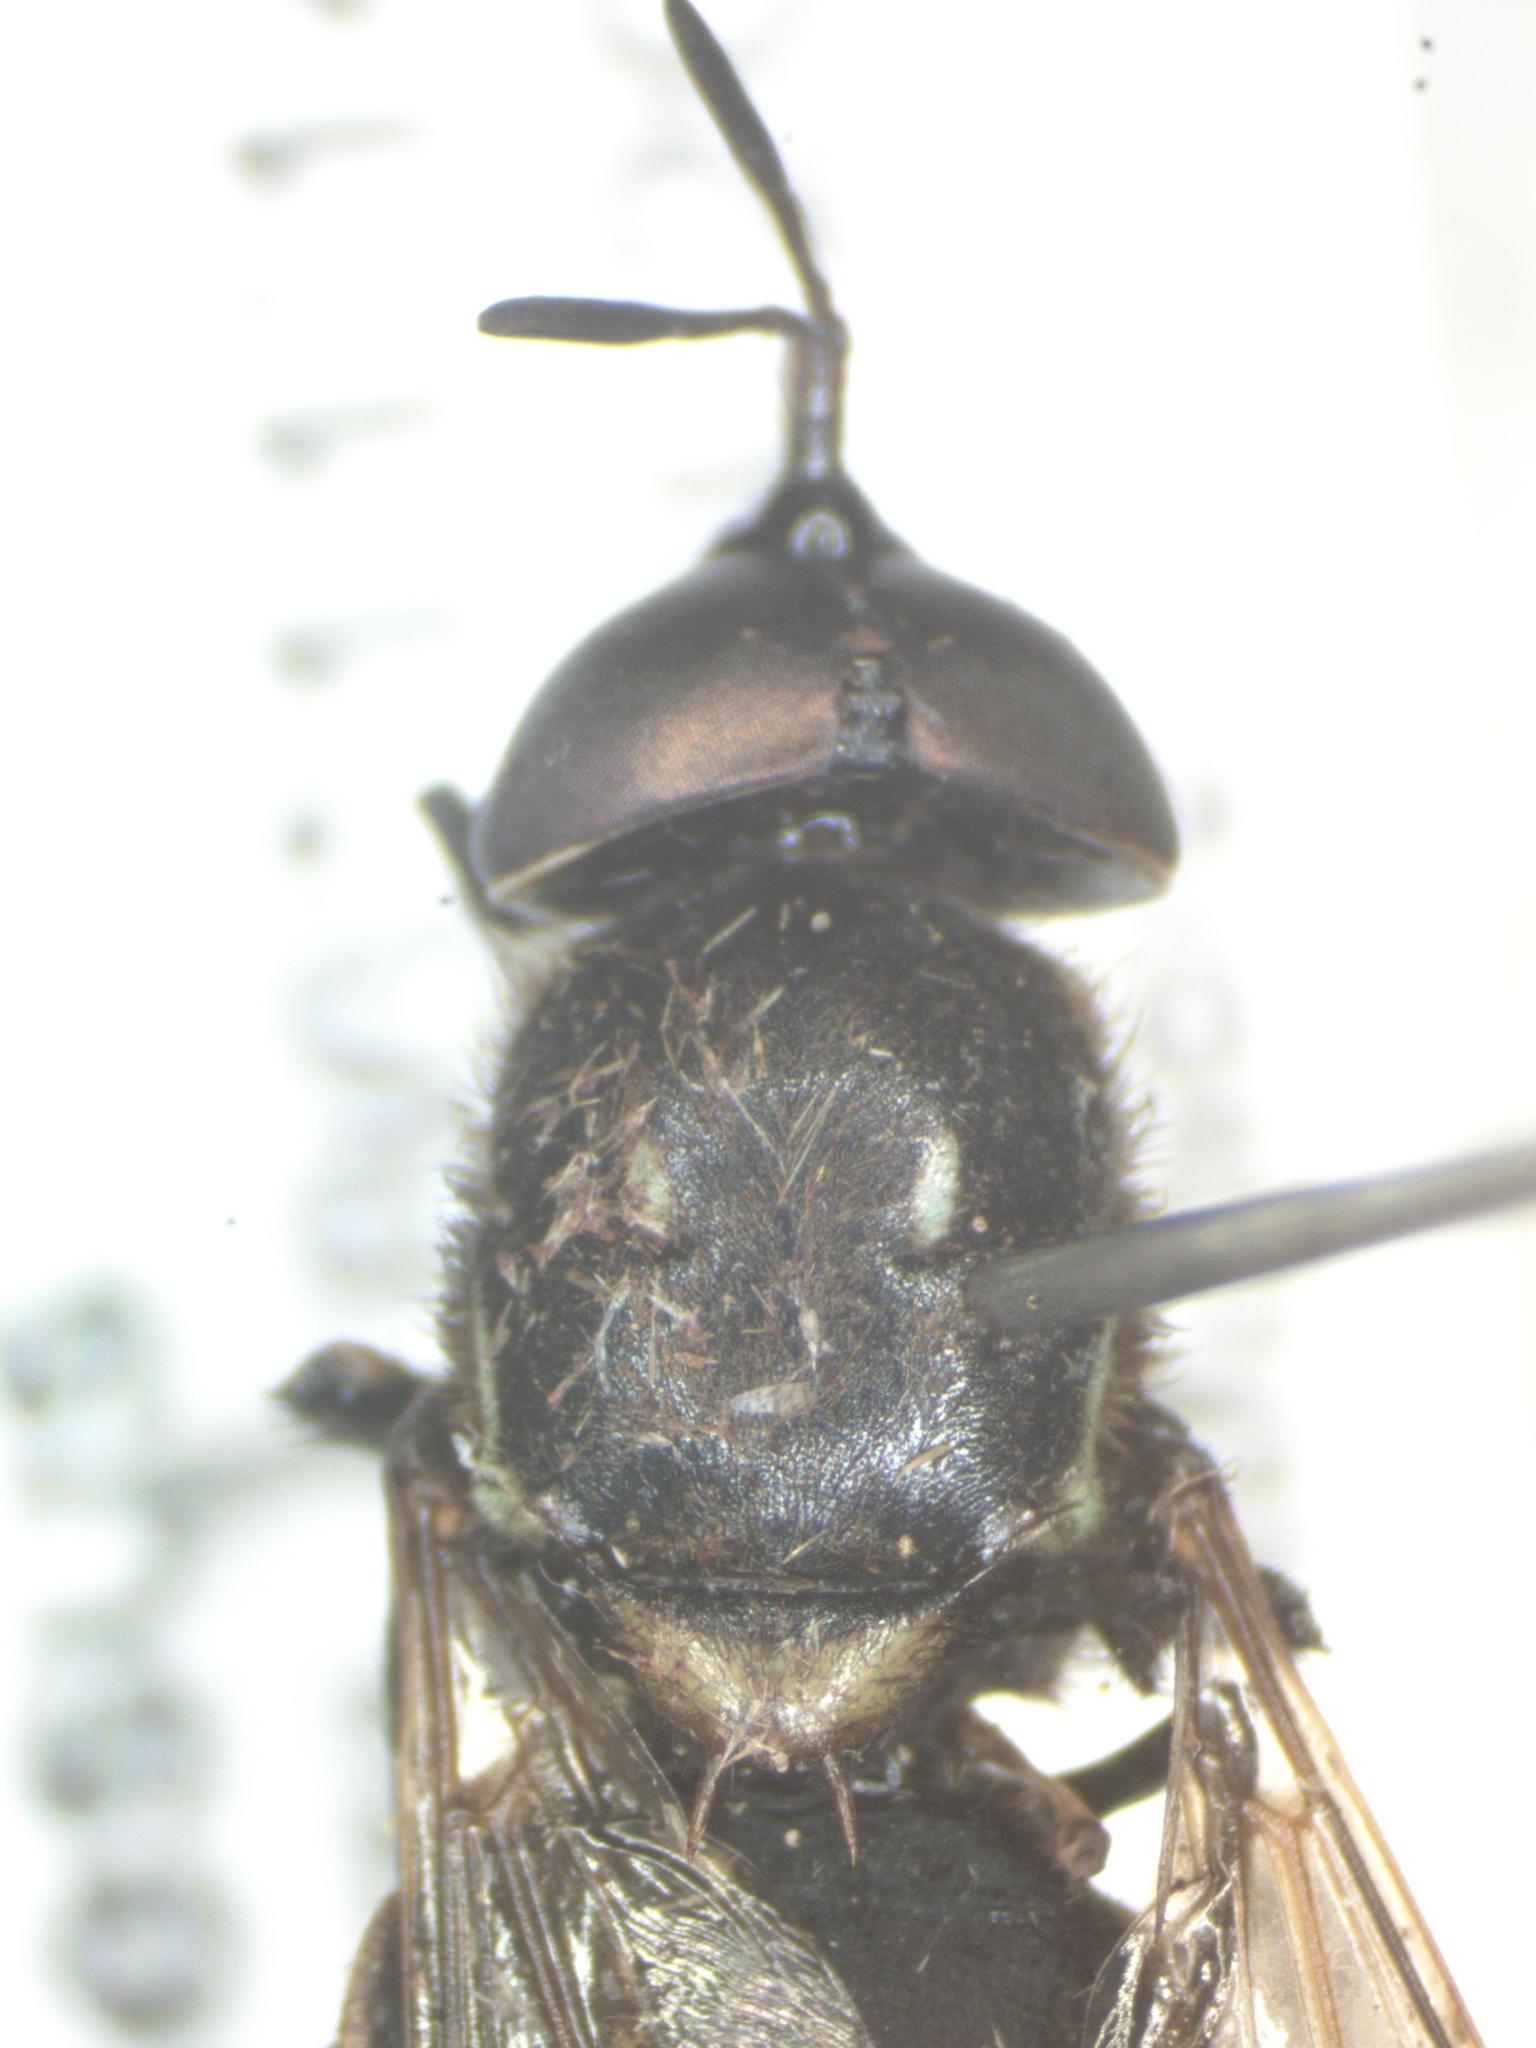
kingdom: Animalia
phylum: Arthropoda
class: Insecta
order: Diptera
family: Stratiomyidae
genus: Promeranisa
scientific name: Promeranisa cylindricornis
